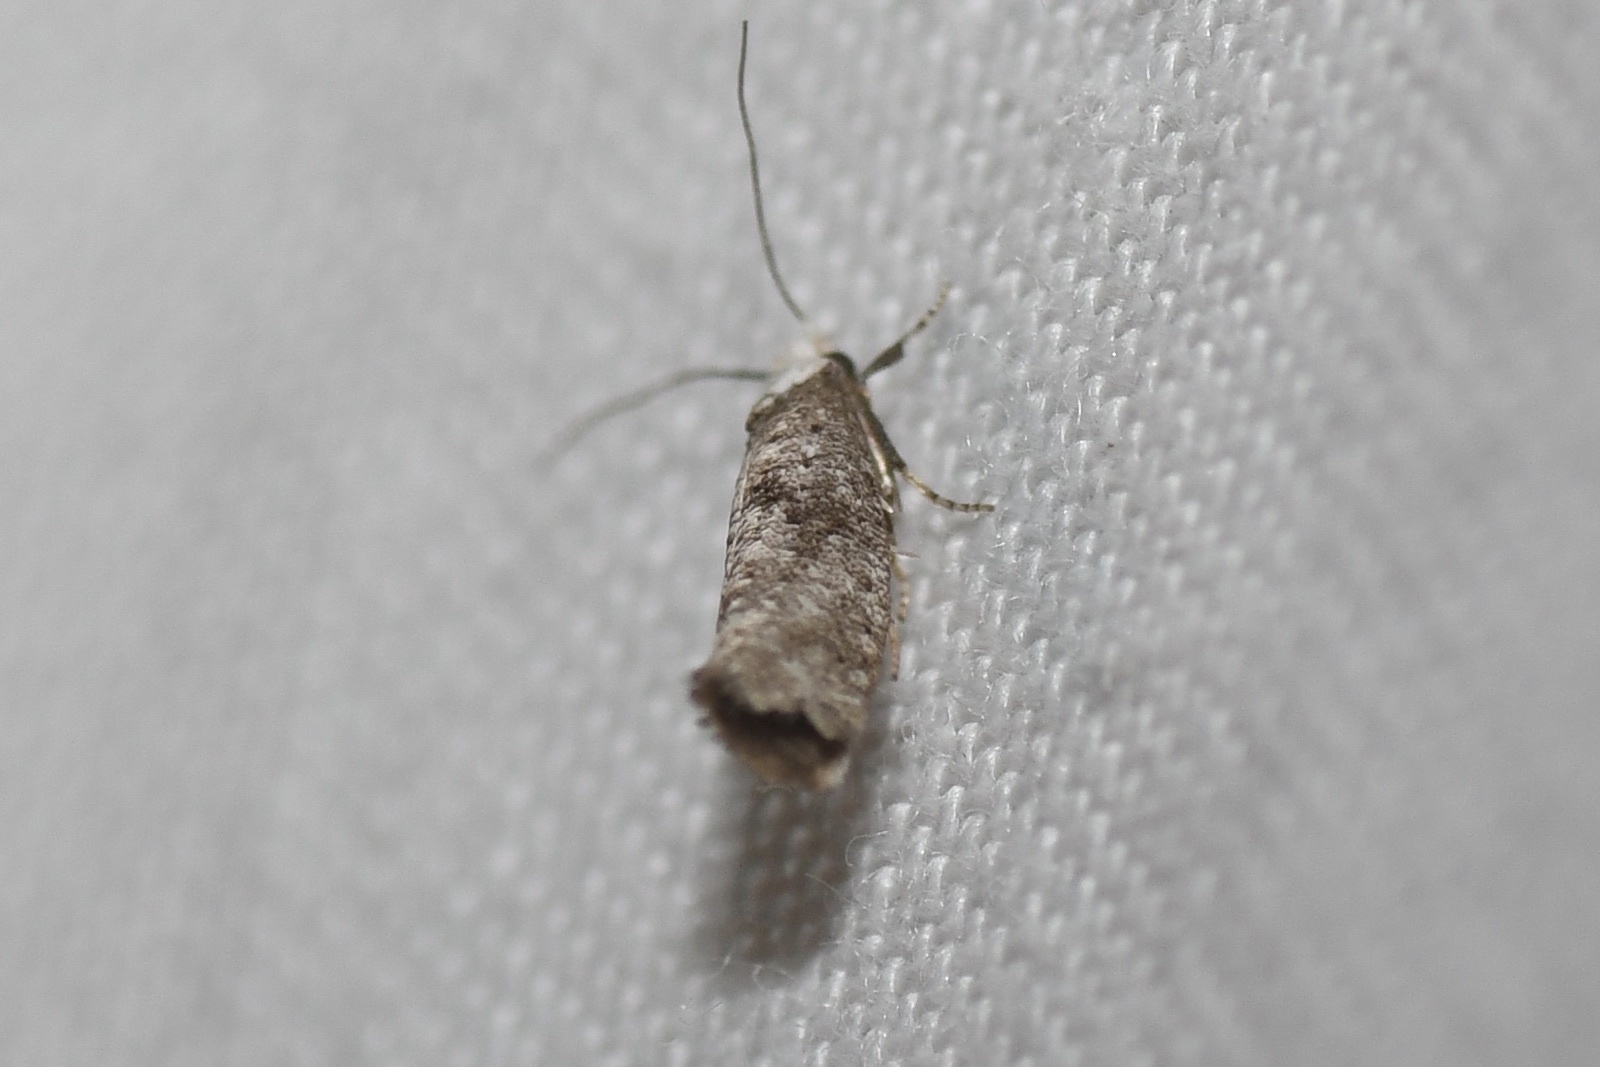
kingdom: Animalia
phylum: Arthropoda
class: Insecta
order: Lepidoptera
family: Yponomeutidae
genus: Swammerdamia
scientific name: Swammerdamia
